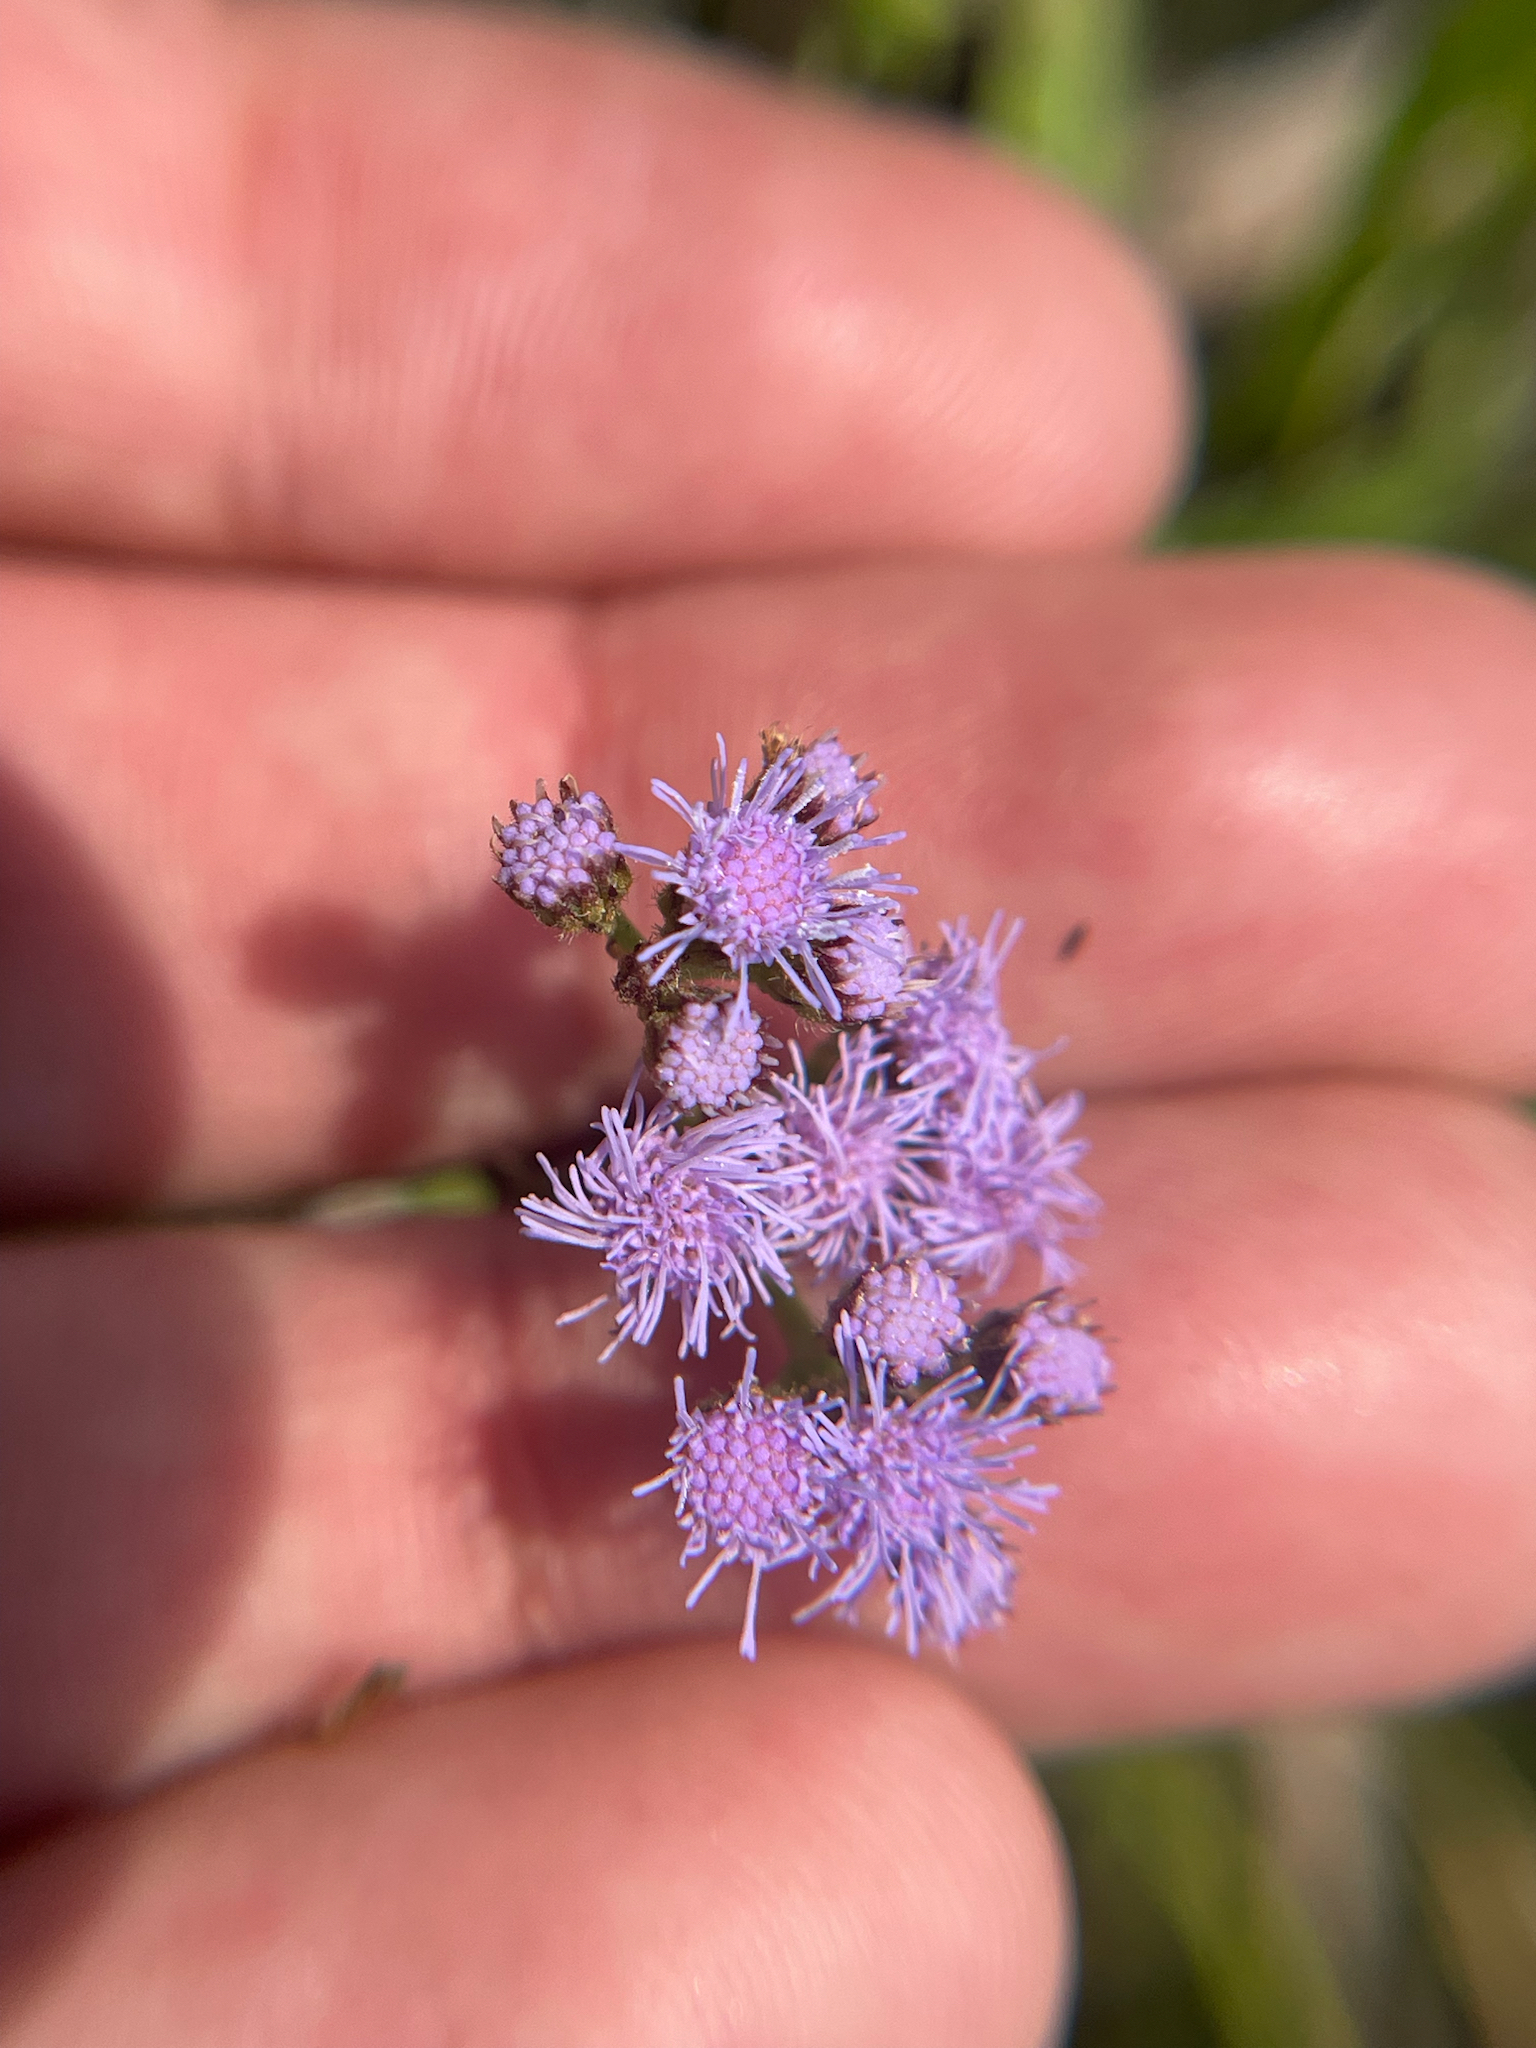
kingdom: Plantae
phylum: Tracheophyta
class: Magnoliopsida
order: Asterales
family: Asteraceae
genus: Conoclinium
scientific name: Conoclinium coelestinum
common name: Blue mistflower
